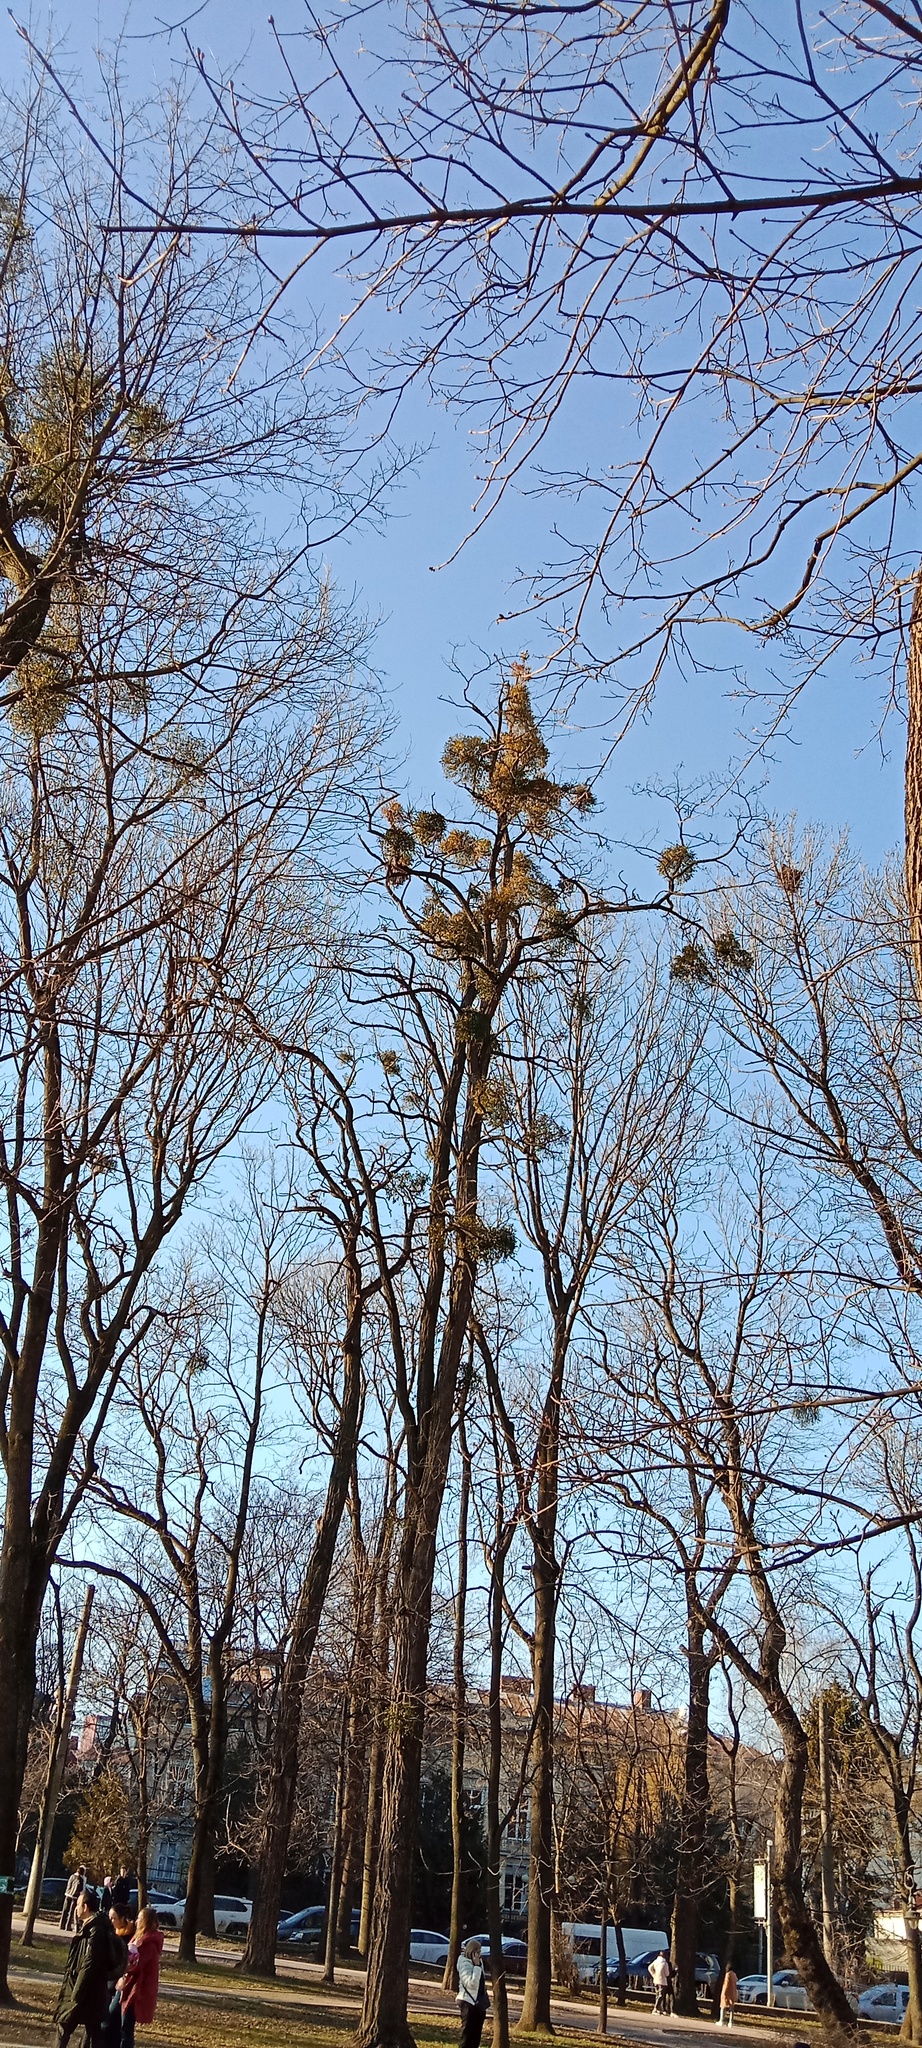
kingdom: Plantae
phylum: Tracheophyta
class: Magnoliopsida
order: Santalales
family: Viscaceae
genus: Viscum
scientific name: Viscum album
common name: Mistletoe
